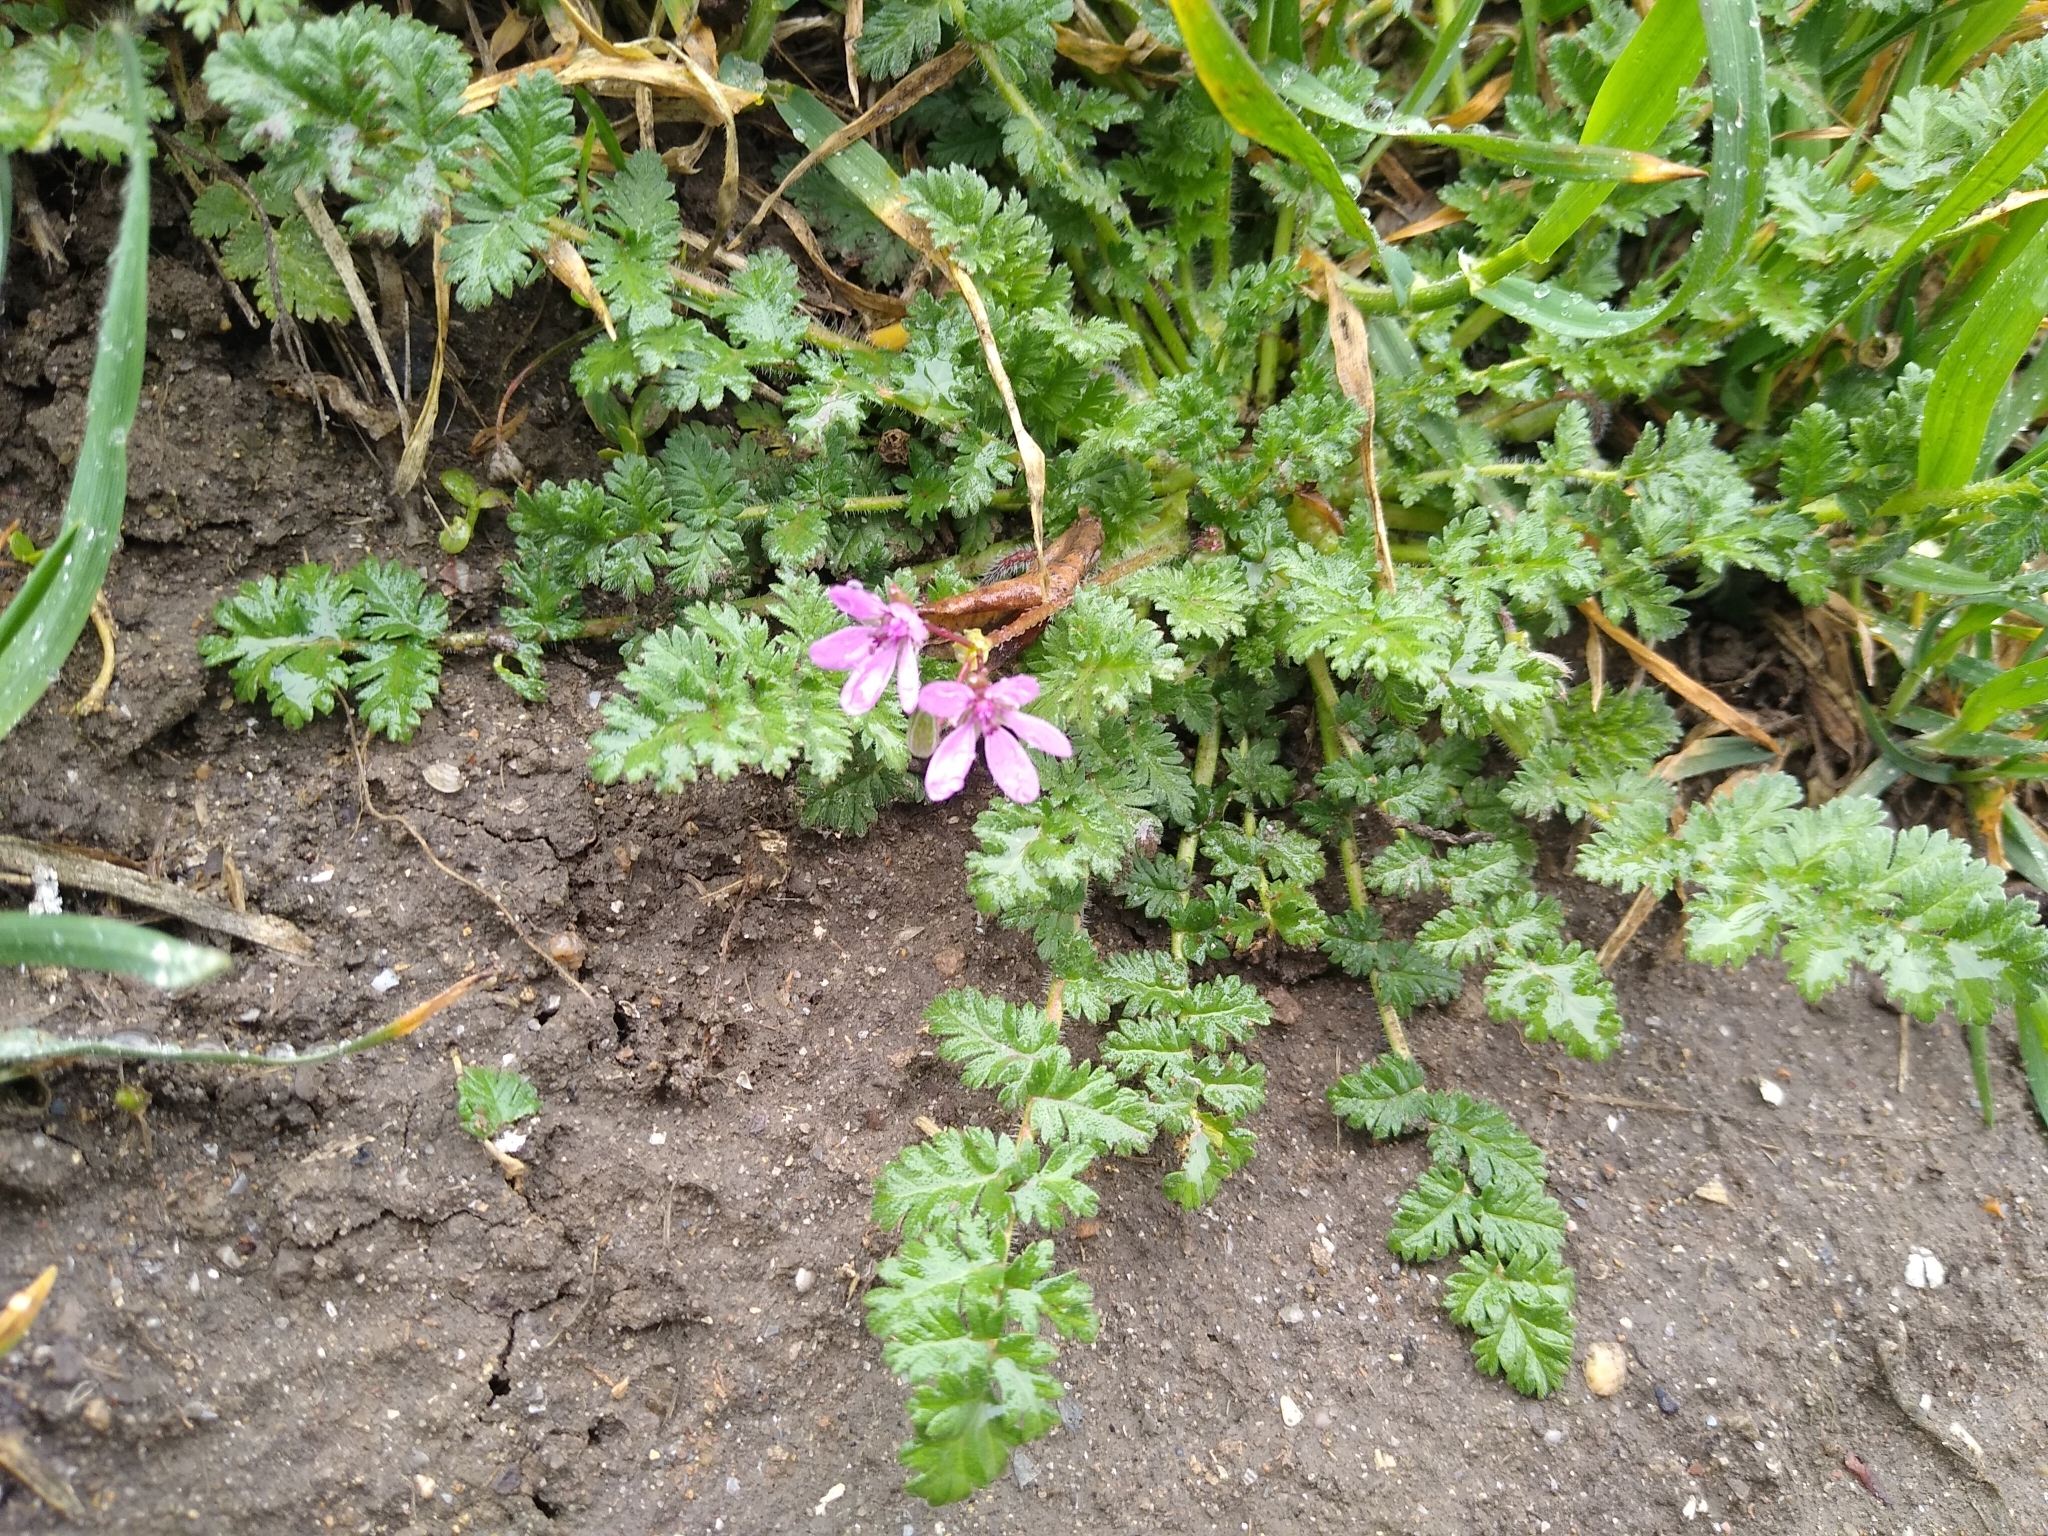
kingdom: Plantae
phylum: Tracheophyta
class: Magnoliopsida
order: Geraniales
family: Geraniaceae
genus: Erodium
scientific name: Erodium cicutarium
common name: Common stork's-bill
